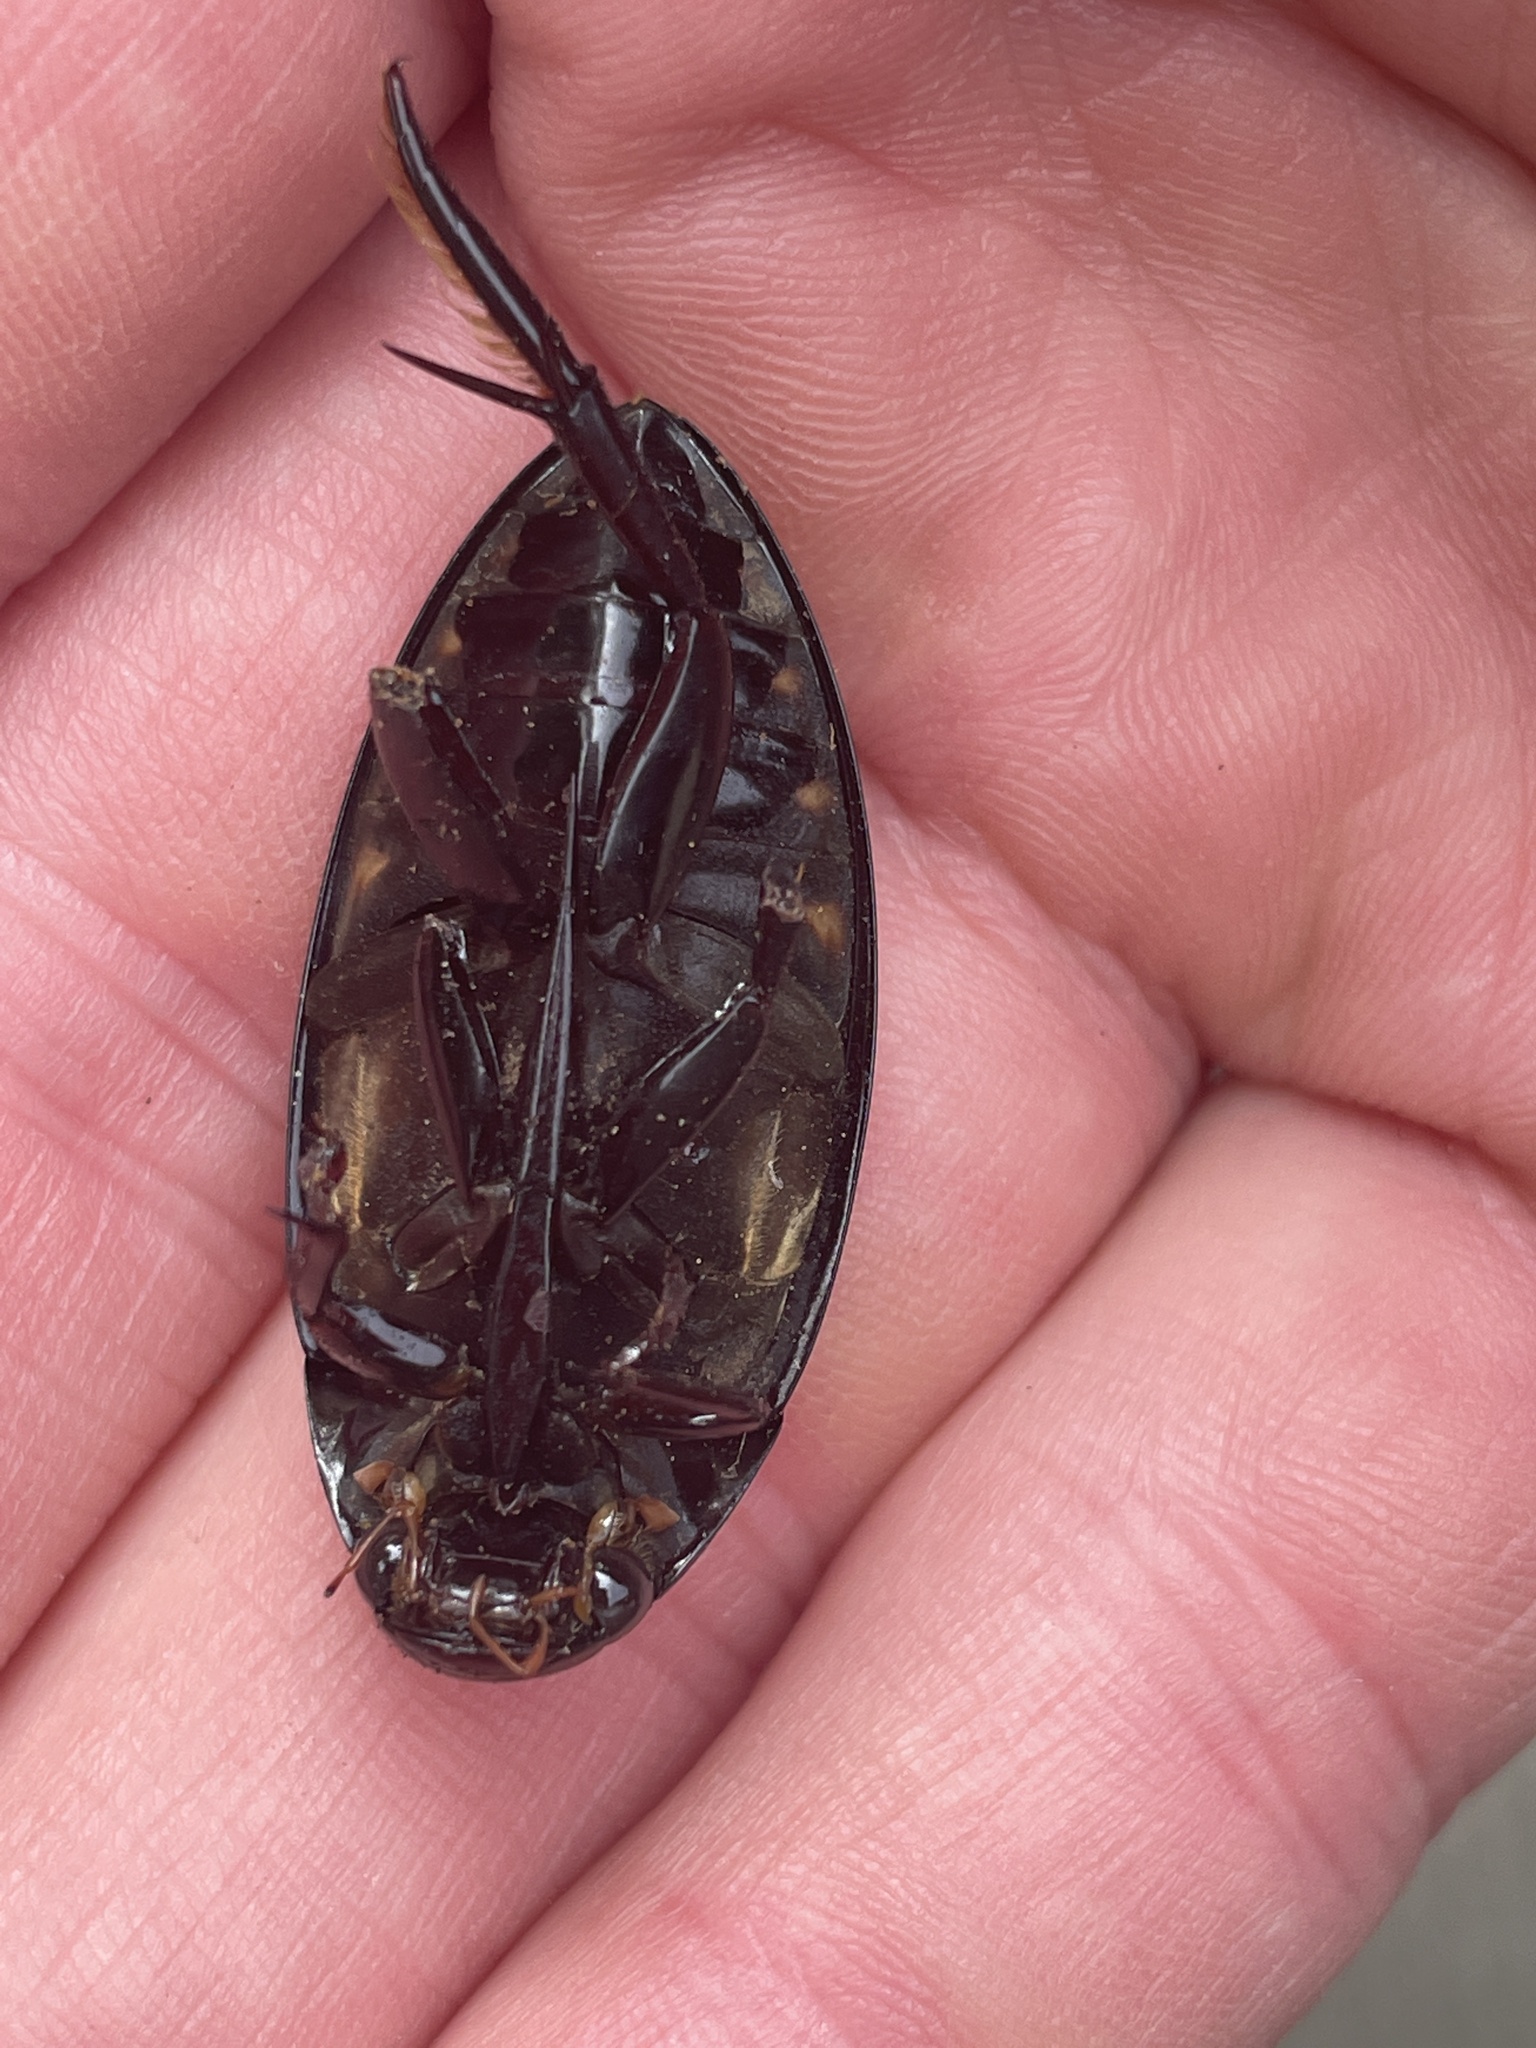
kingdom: Animalia
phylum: Arthropoda
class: Insecta
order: Coleoptera
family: Hydrophilidae
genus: Hydrophilus
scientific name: Hydrophilus triangularis
